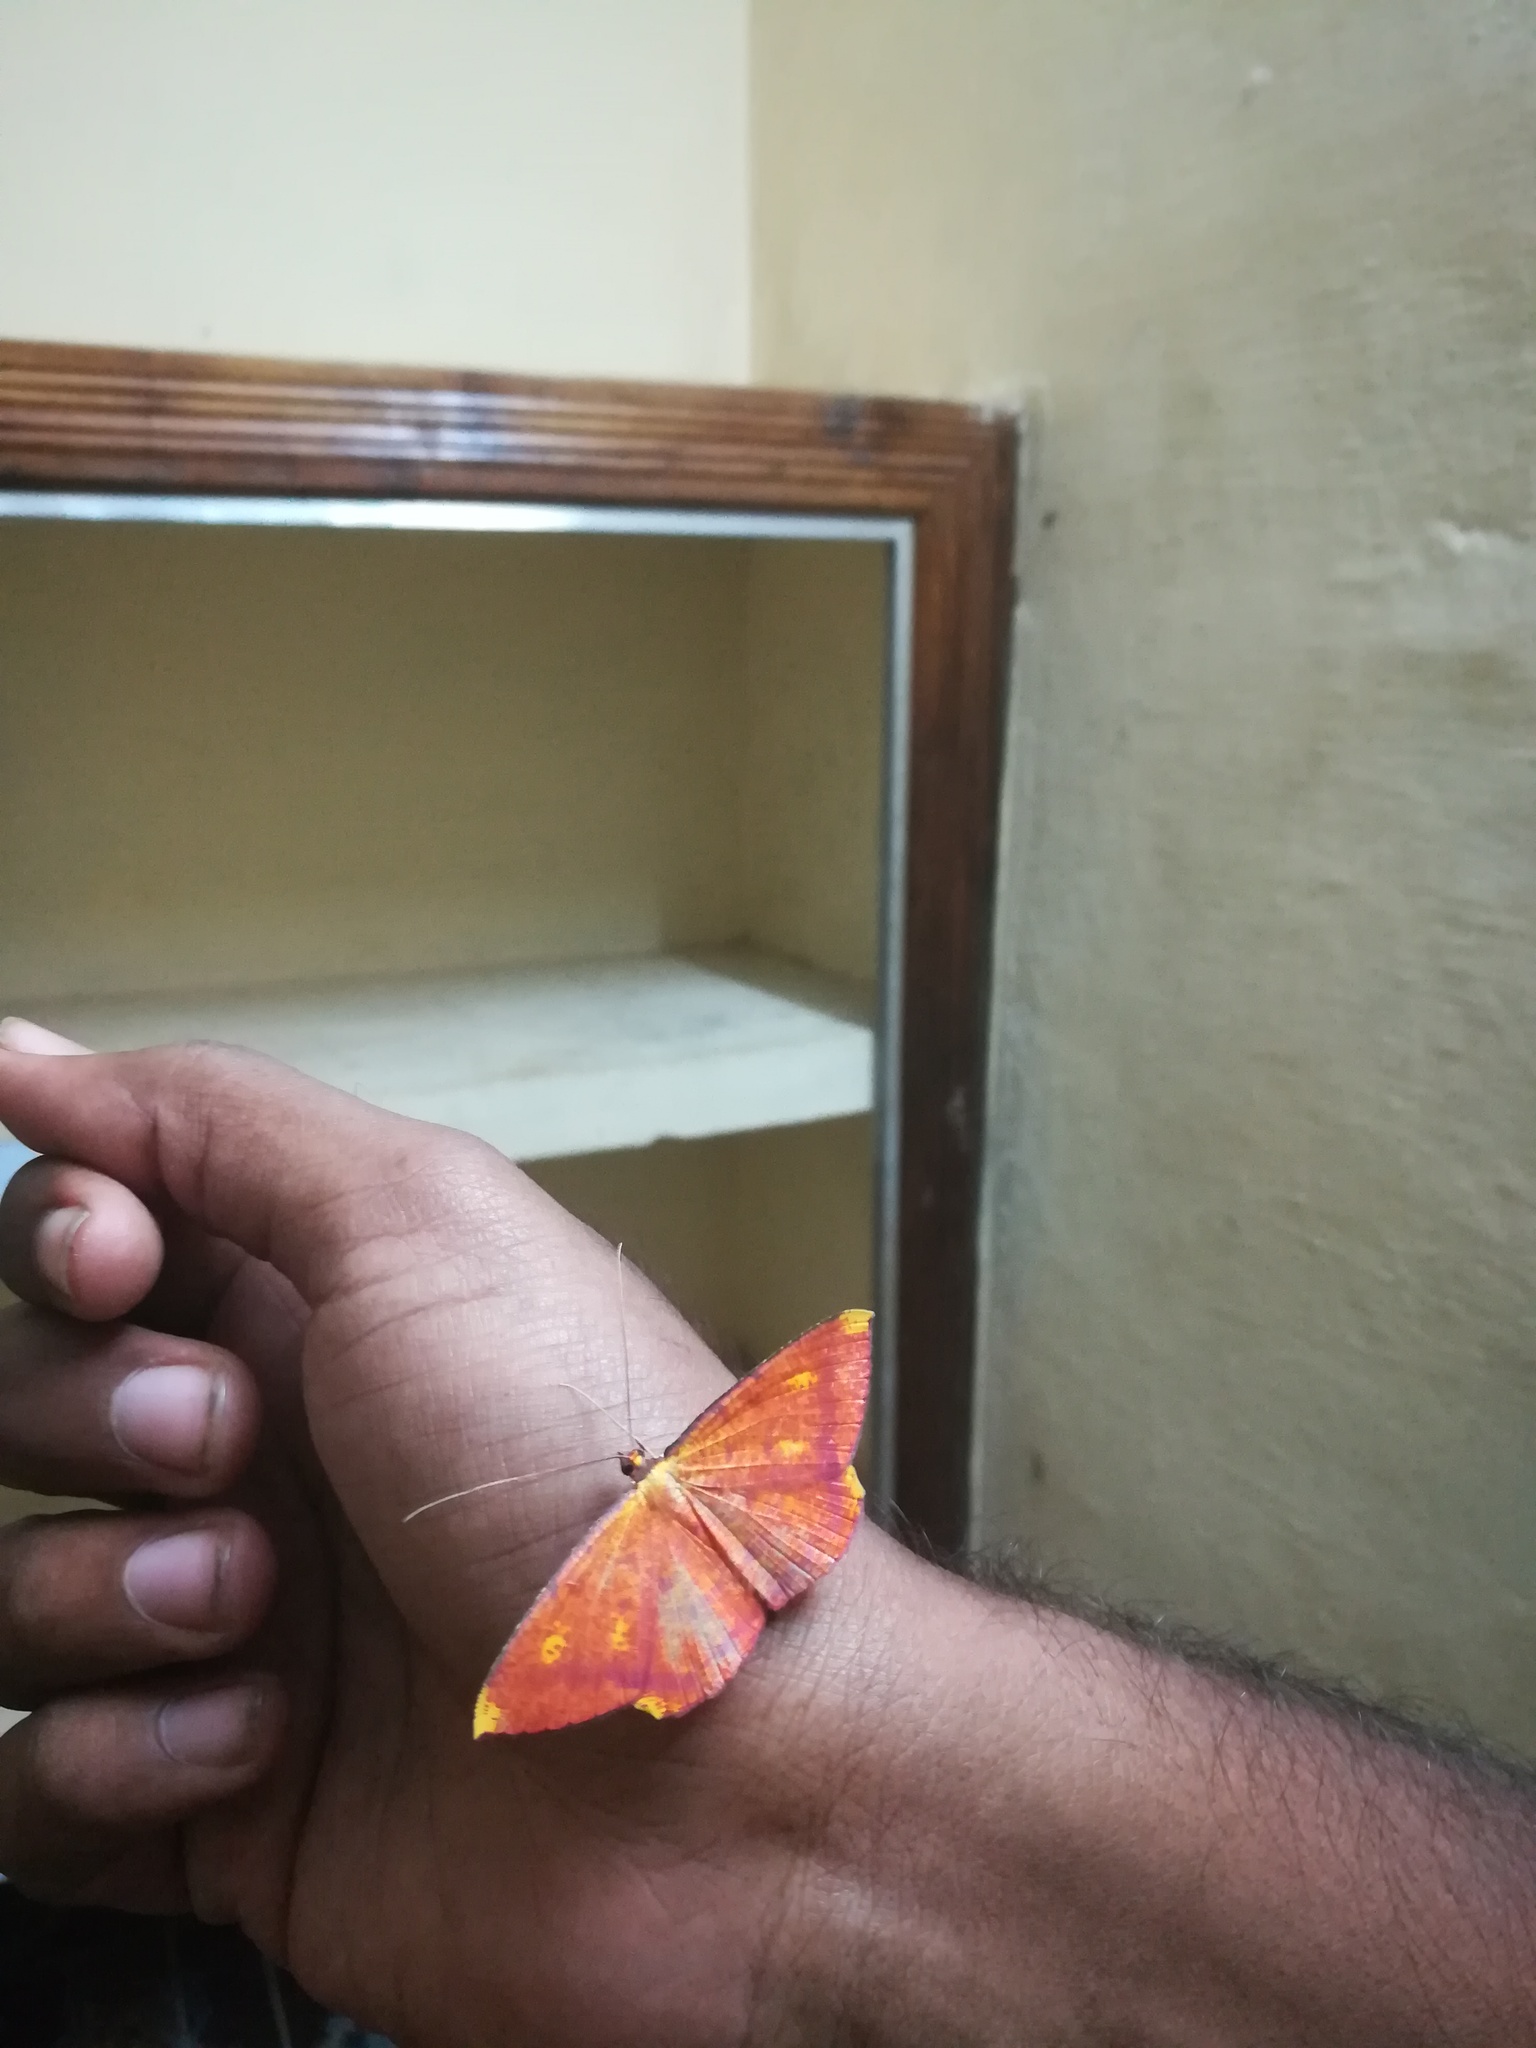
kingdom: Animalia
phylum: Arthropoda
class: Insecta
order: Lepidoptera
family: Geometridae
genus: Eumelea
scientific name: Eumelea ludovicata
